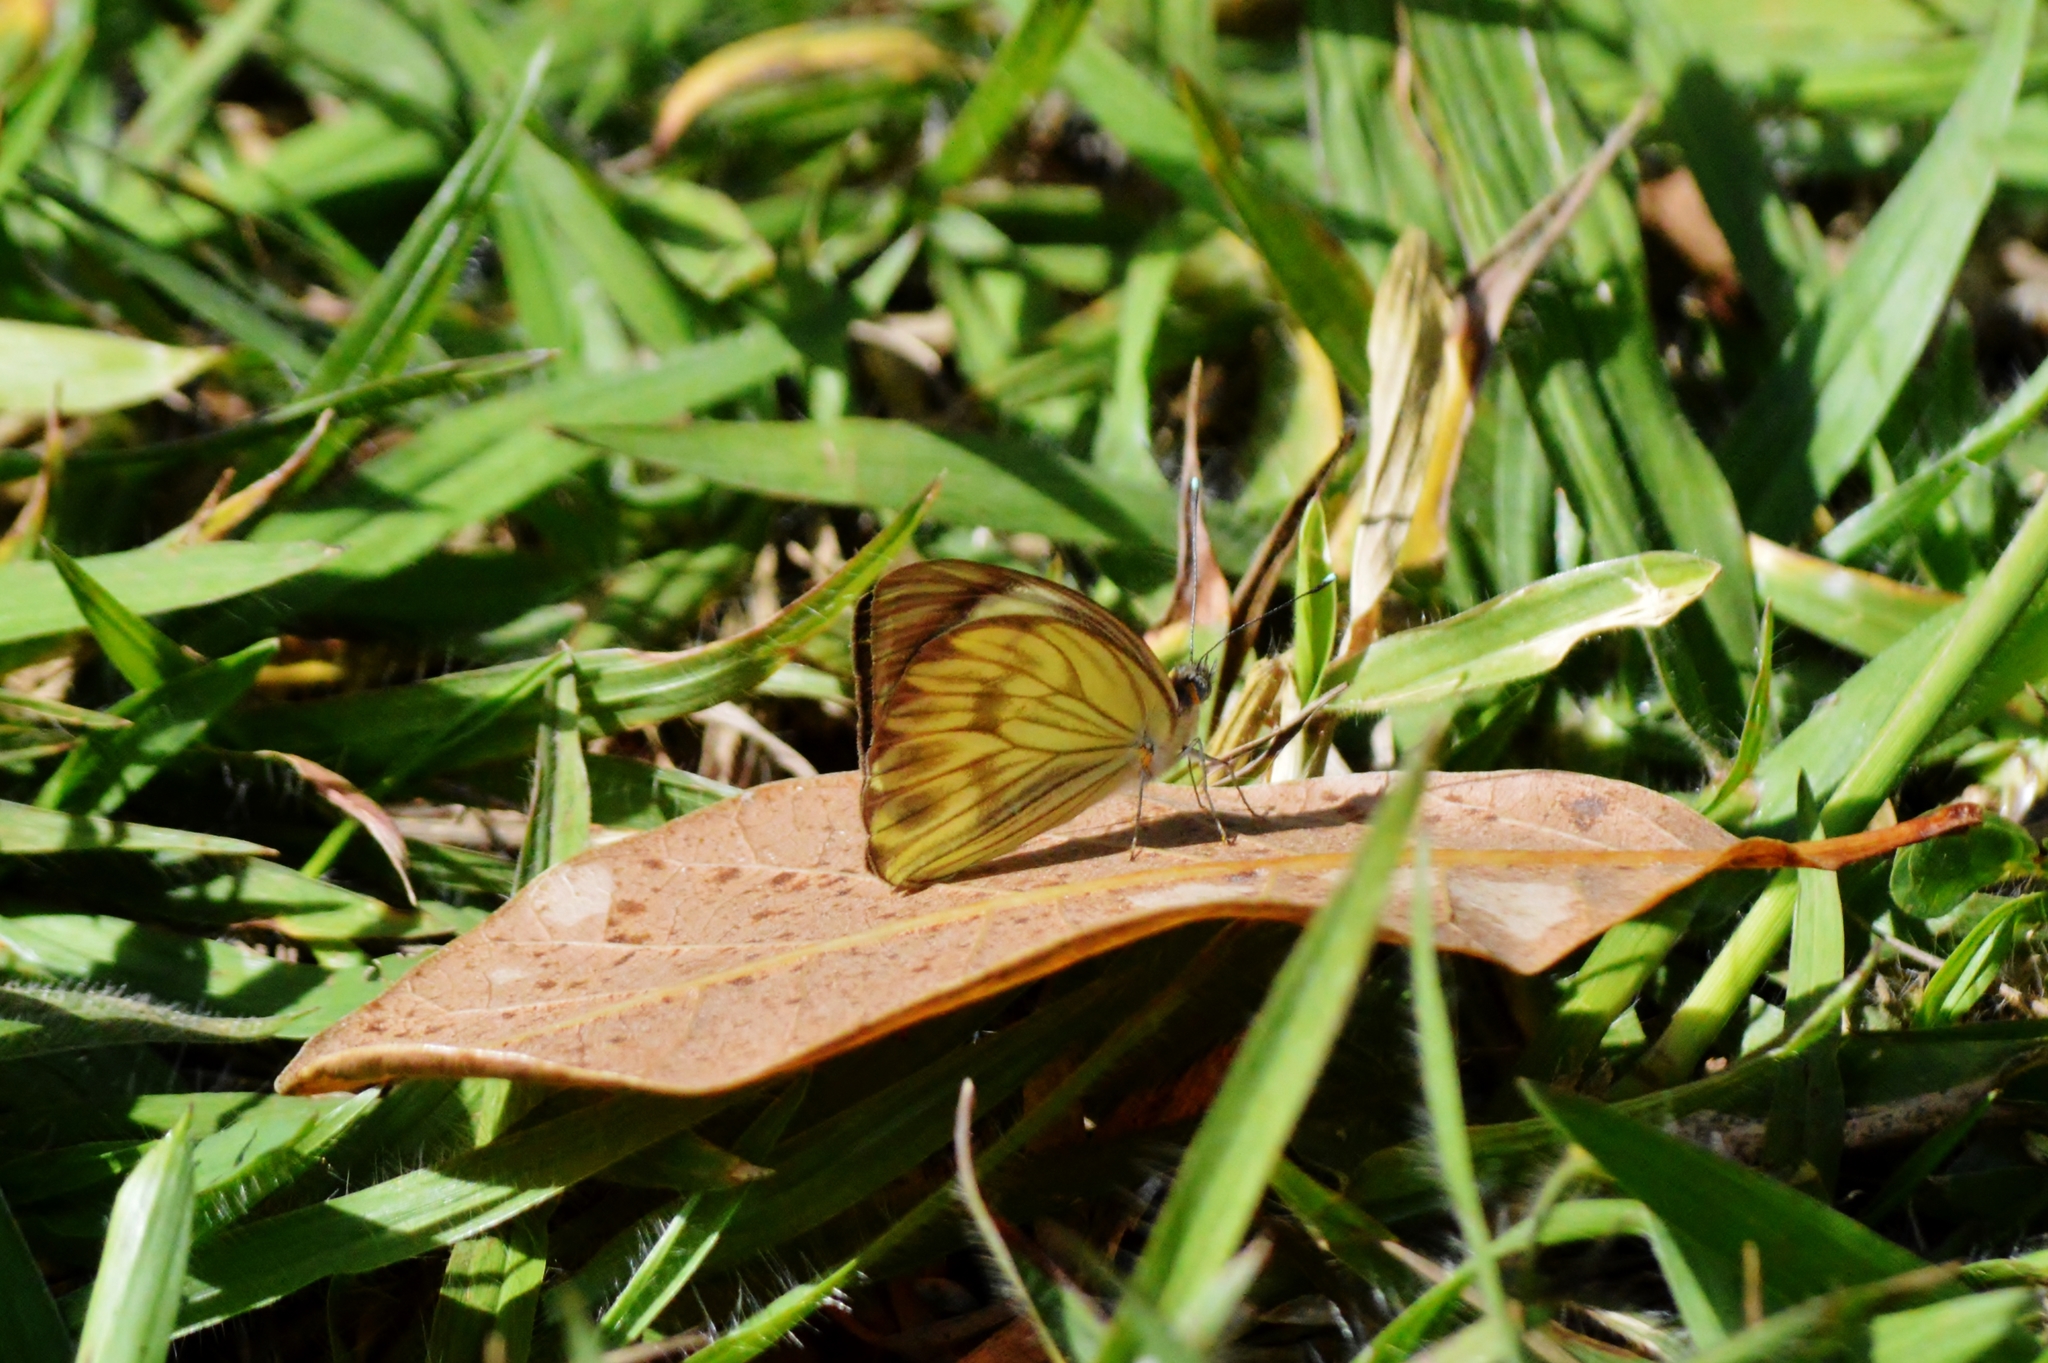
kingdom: Animalia
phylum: Arthropoda
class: Insecta
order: Lepidoptera
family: Pieridae
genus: Ascia
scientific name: Ascia monuste
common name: Great southern white
